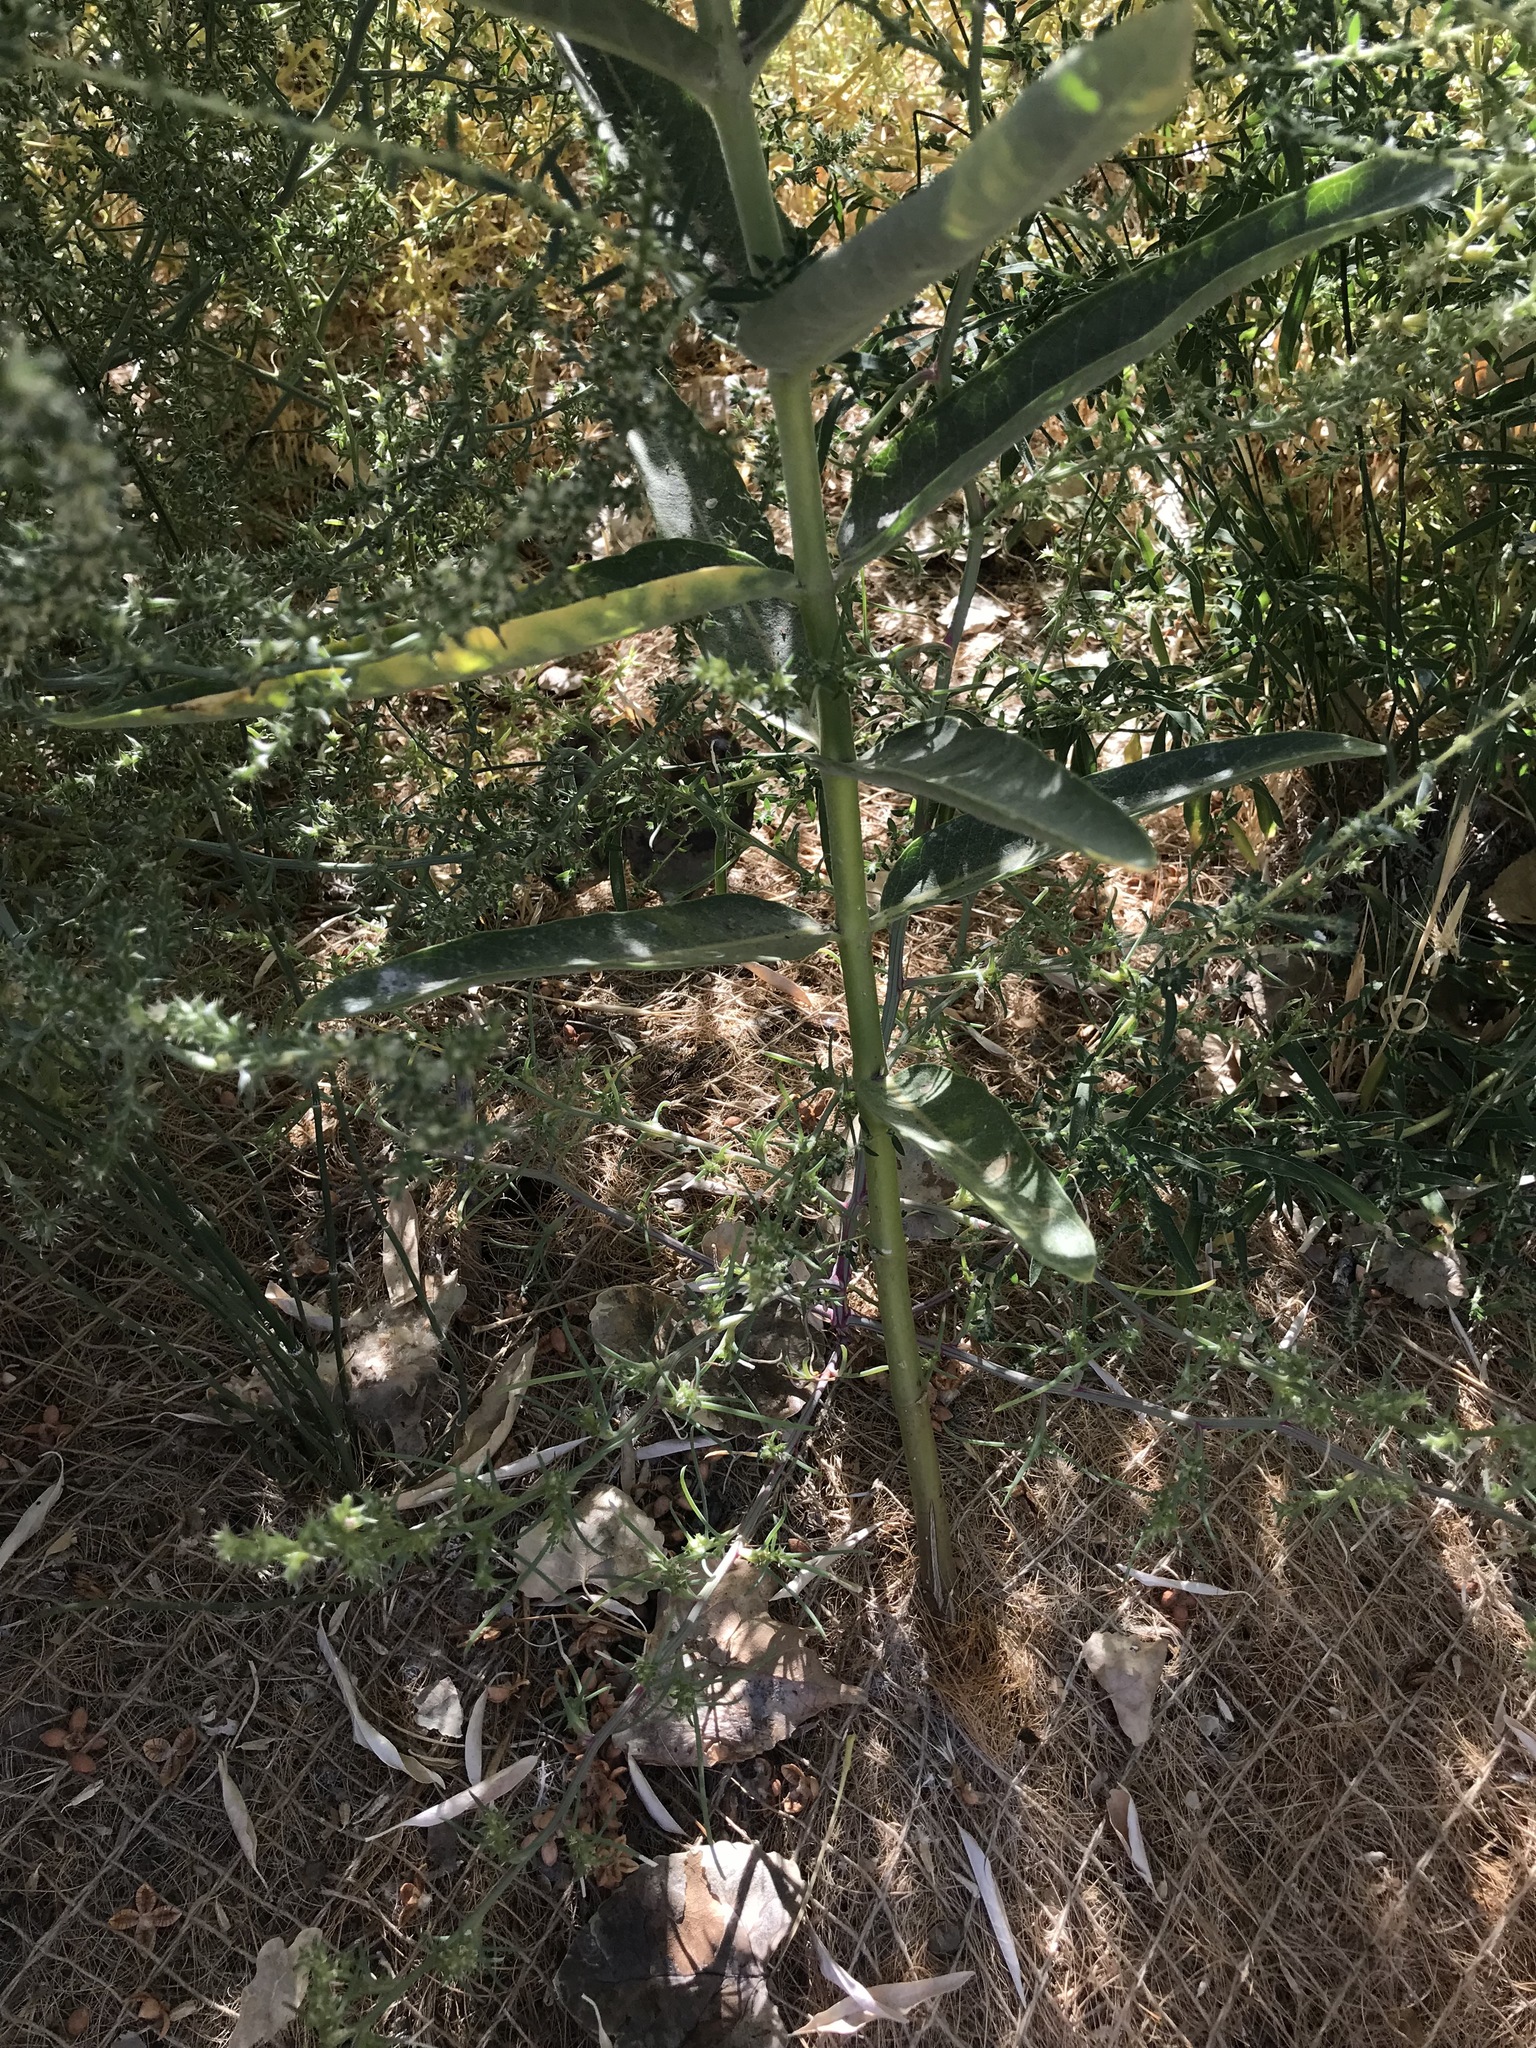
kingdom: Plantae
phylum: Tracheophyta
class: Magnoliopsida
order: Gentianales
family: Apocynaceae
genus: Asclepias
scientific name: Asclepias speciosa
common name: Showy milkweed
